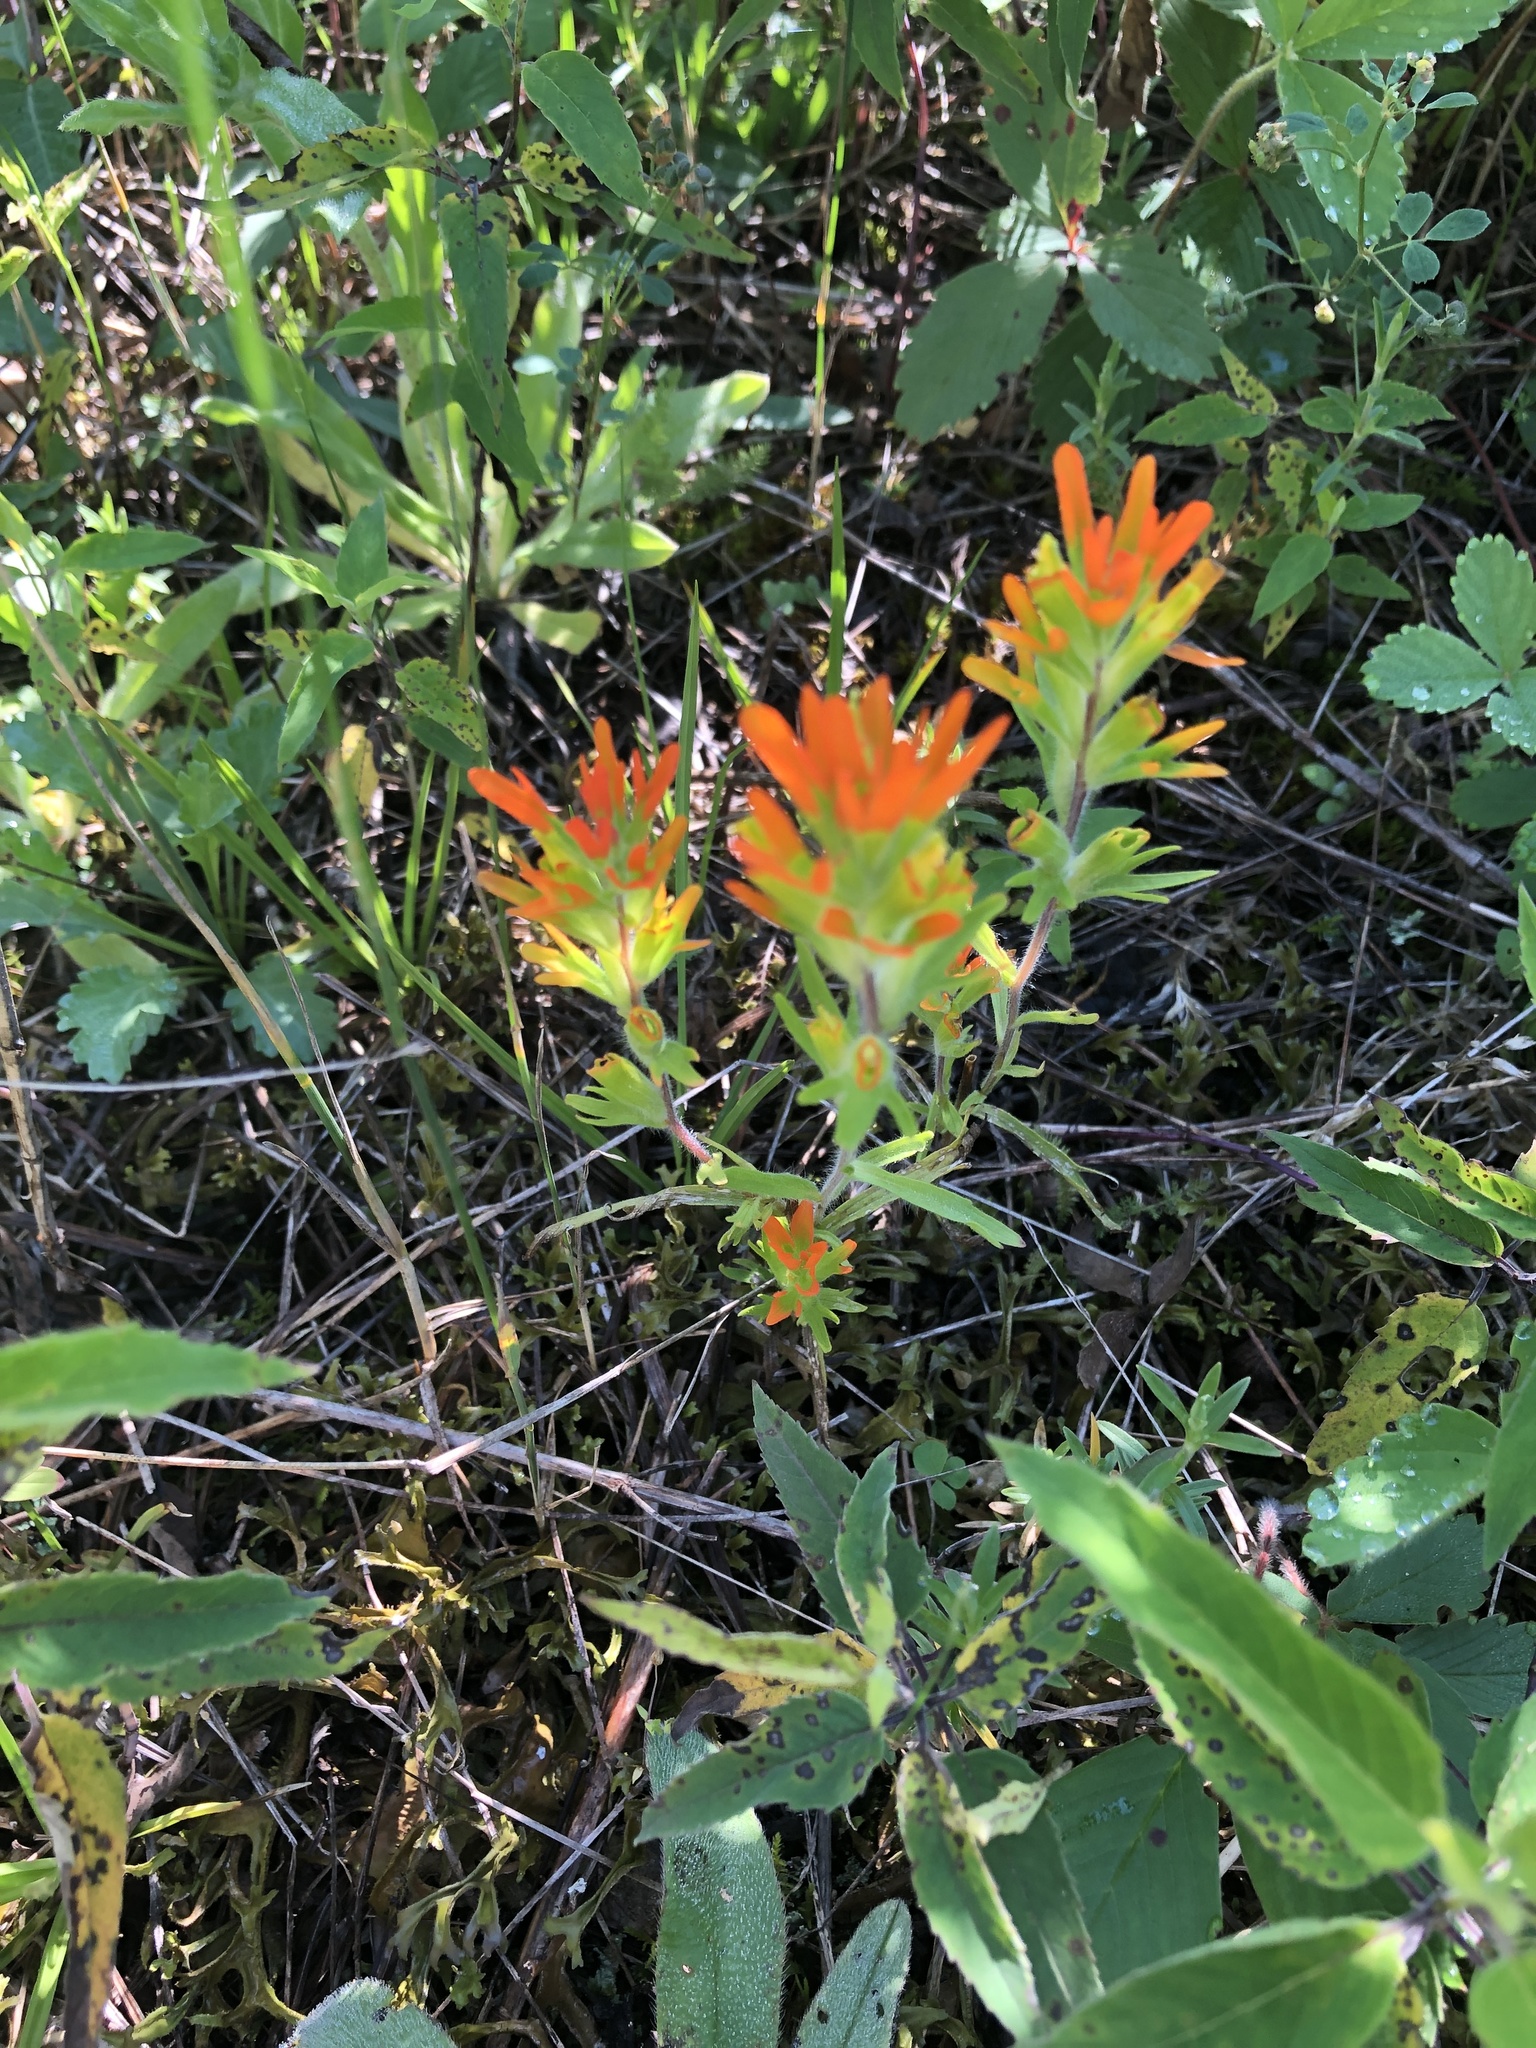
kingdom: Plantae
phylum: Tracheophyta
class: Magnoliopsida
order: Lamiales
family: Orobanchaceae
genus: Castilleja
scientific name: Castilleja coccinea
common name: Scarlet paintbrush
